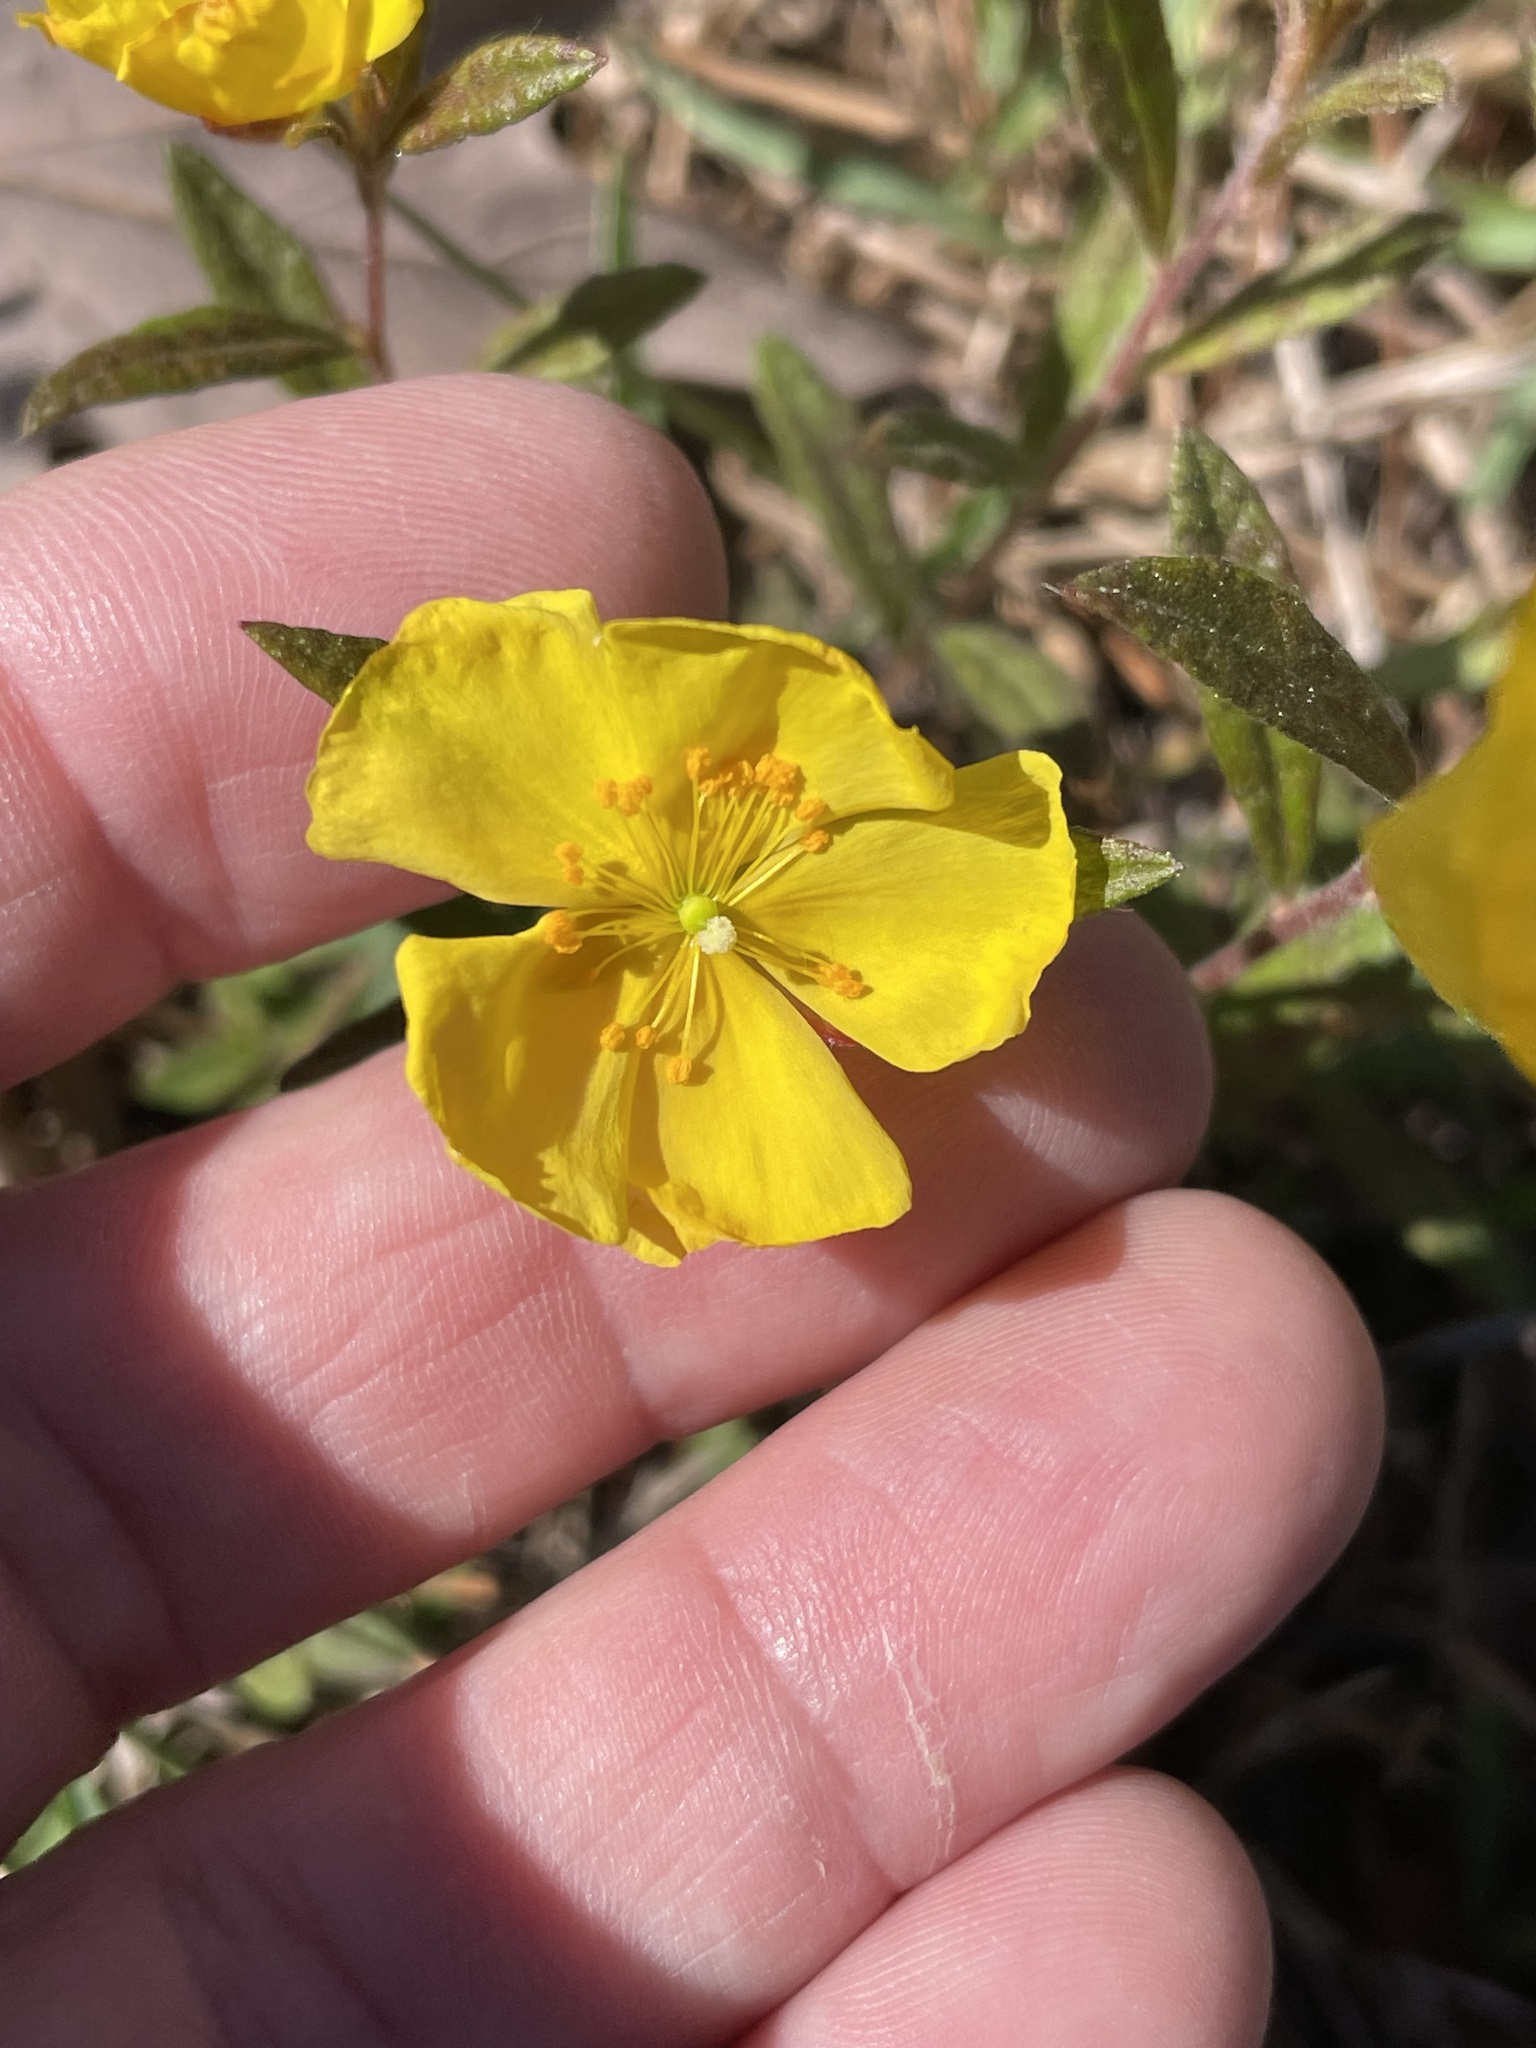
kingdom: Plantae
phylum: Tracheophyta
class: Magnoliopsida
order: Malvales
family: Cistaceae
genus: Crocanthemum
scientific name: Crocanthemum canadense
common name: Canada frostweed
